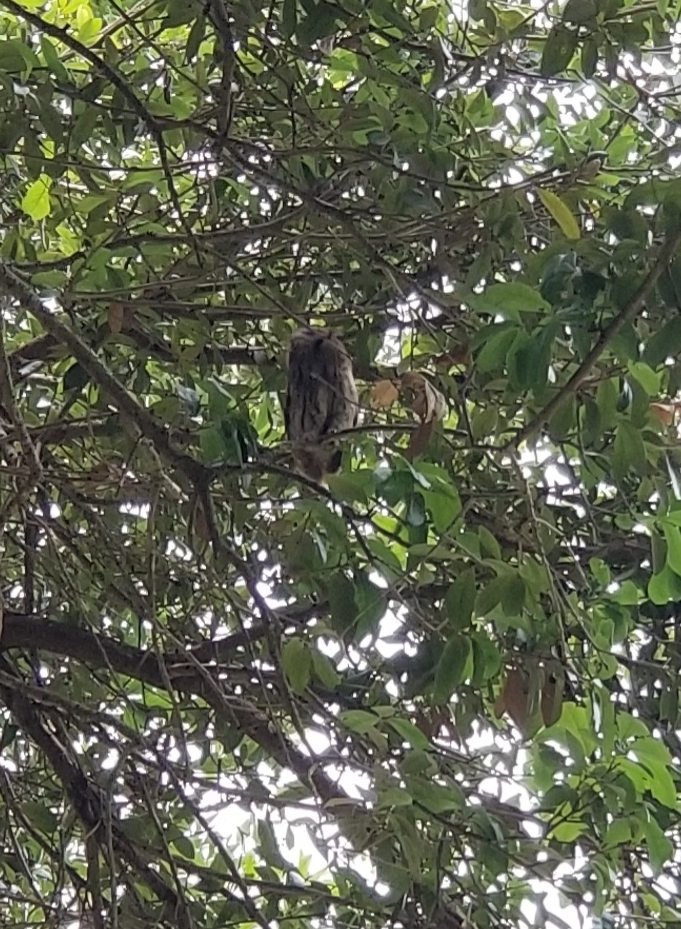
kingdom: Animalia
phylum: Chordata
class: Aves
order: Strigiformes
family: Strigidae
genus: Megascops
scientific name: Megascops asio
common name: Eastern screech-owl
